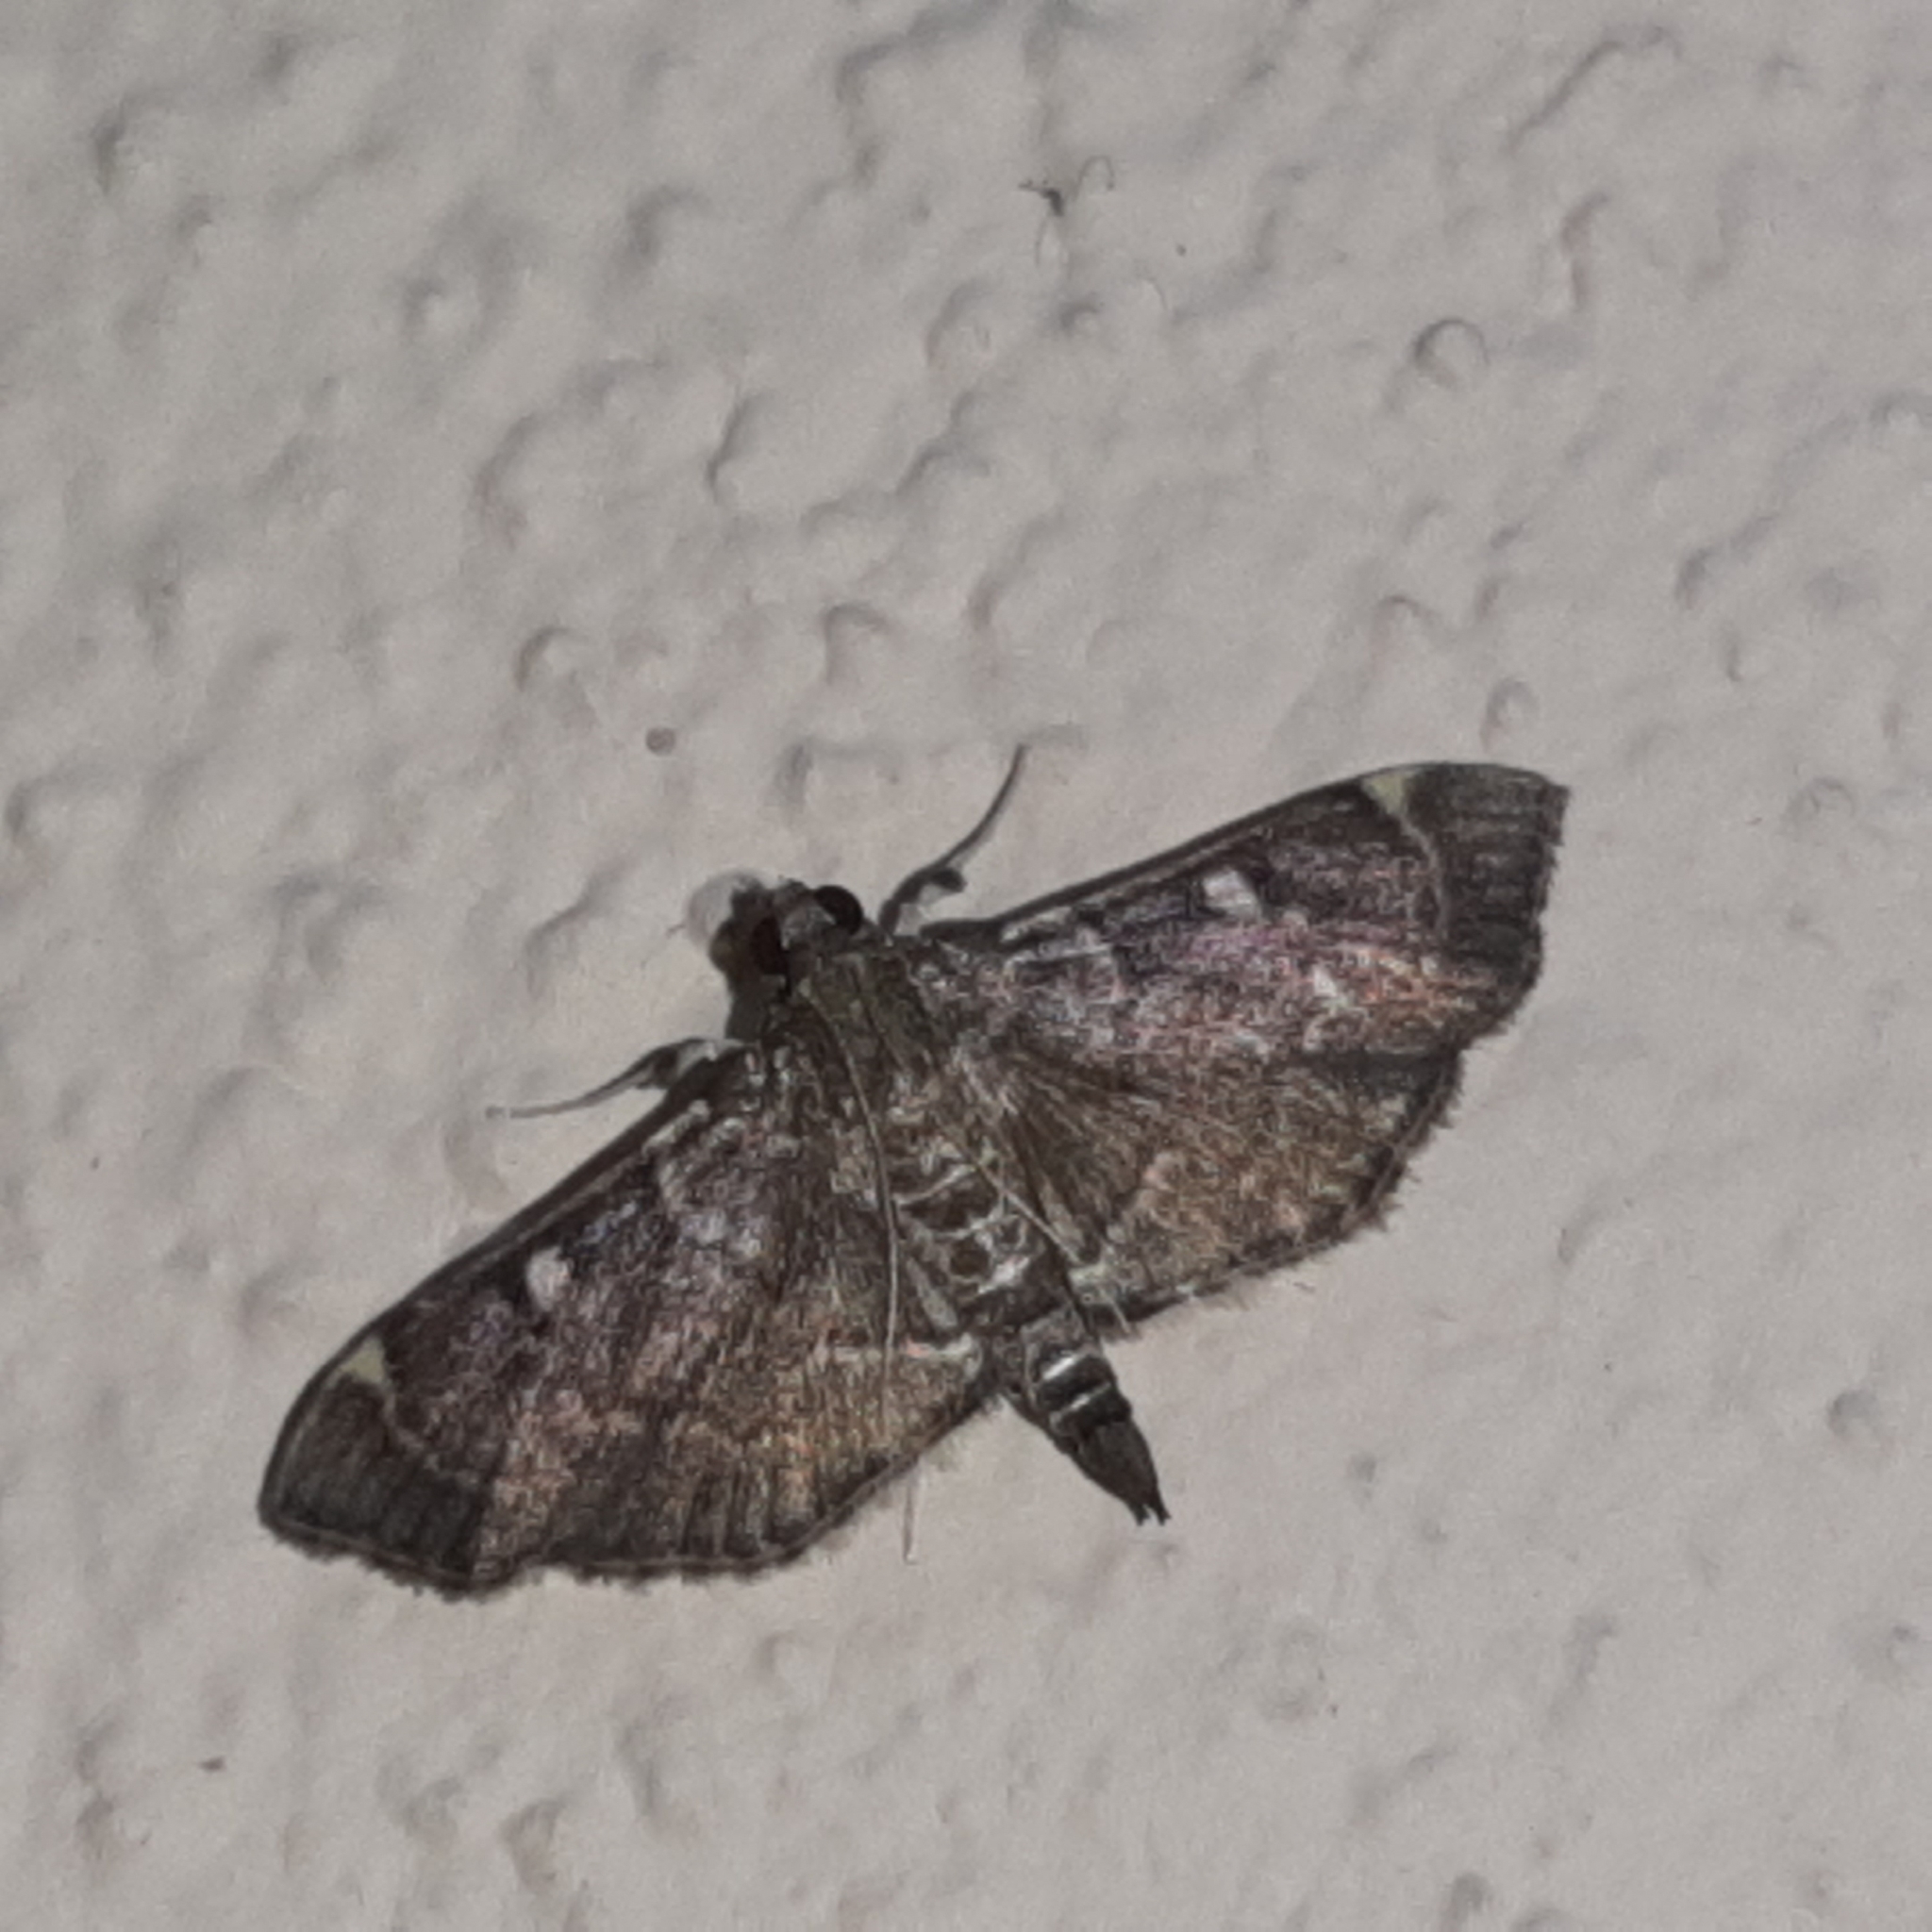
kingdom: Animalia
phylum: Arthropoda
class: Insecta
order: Lepidoptera
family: Crambidae
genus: Cryptobotys
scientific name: Cryptobotys zoilusalis
